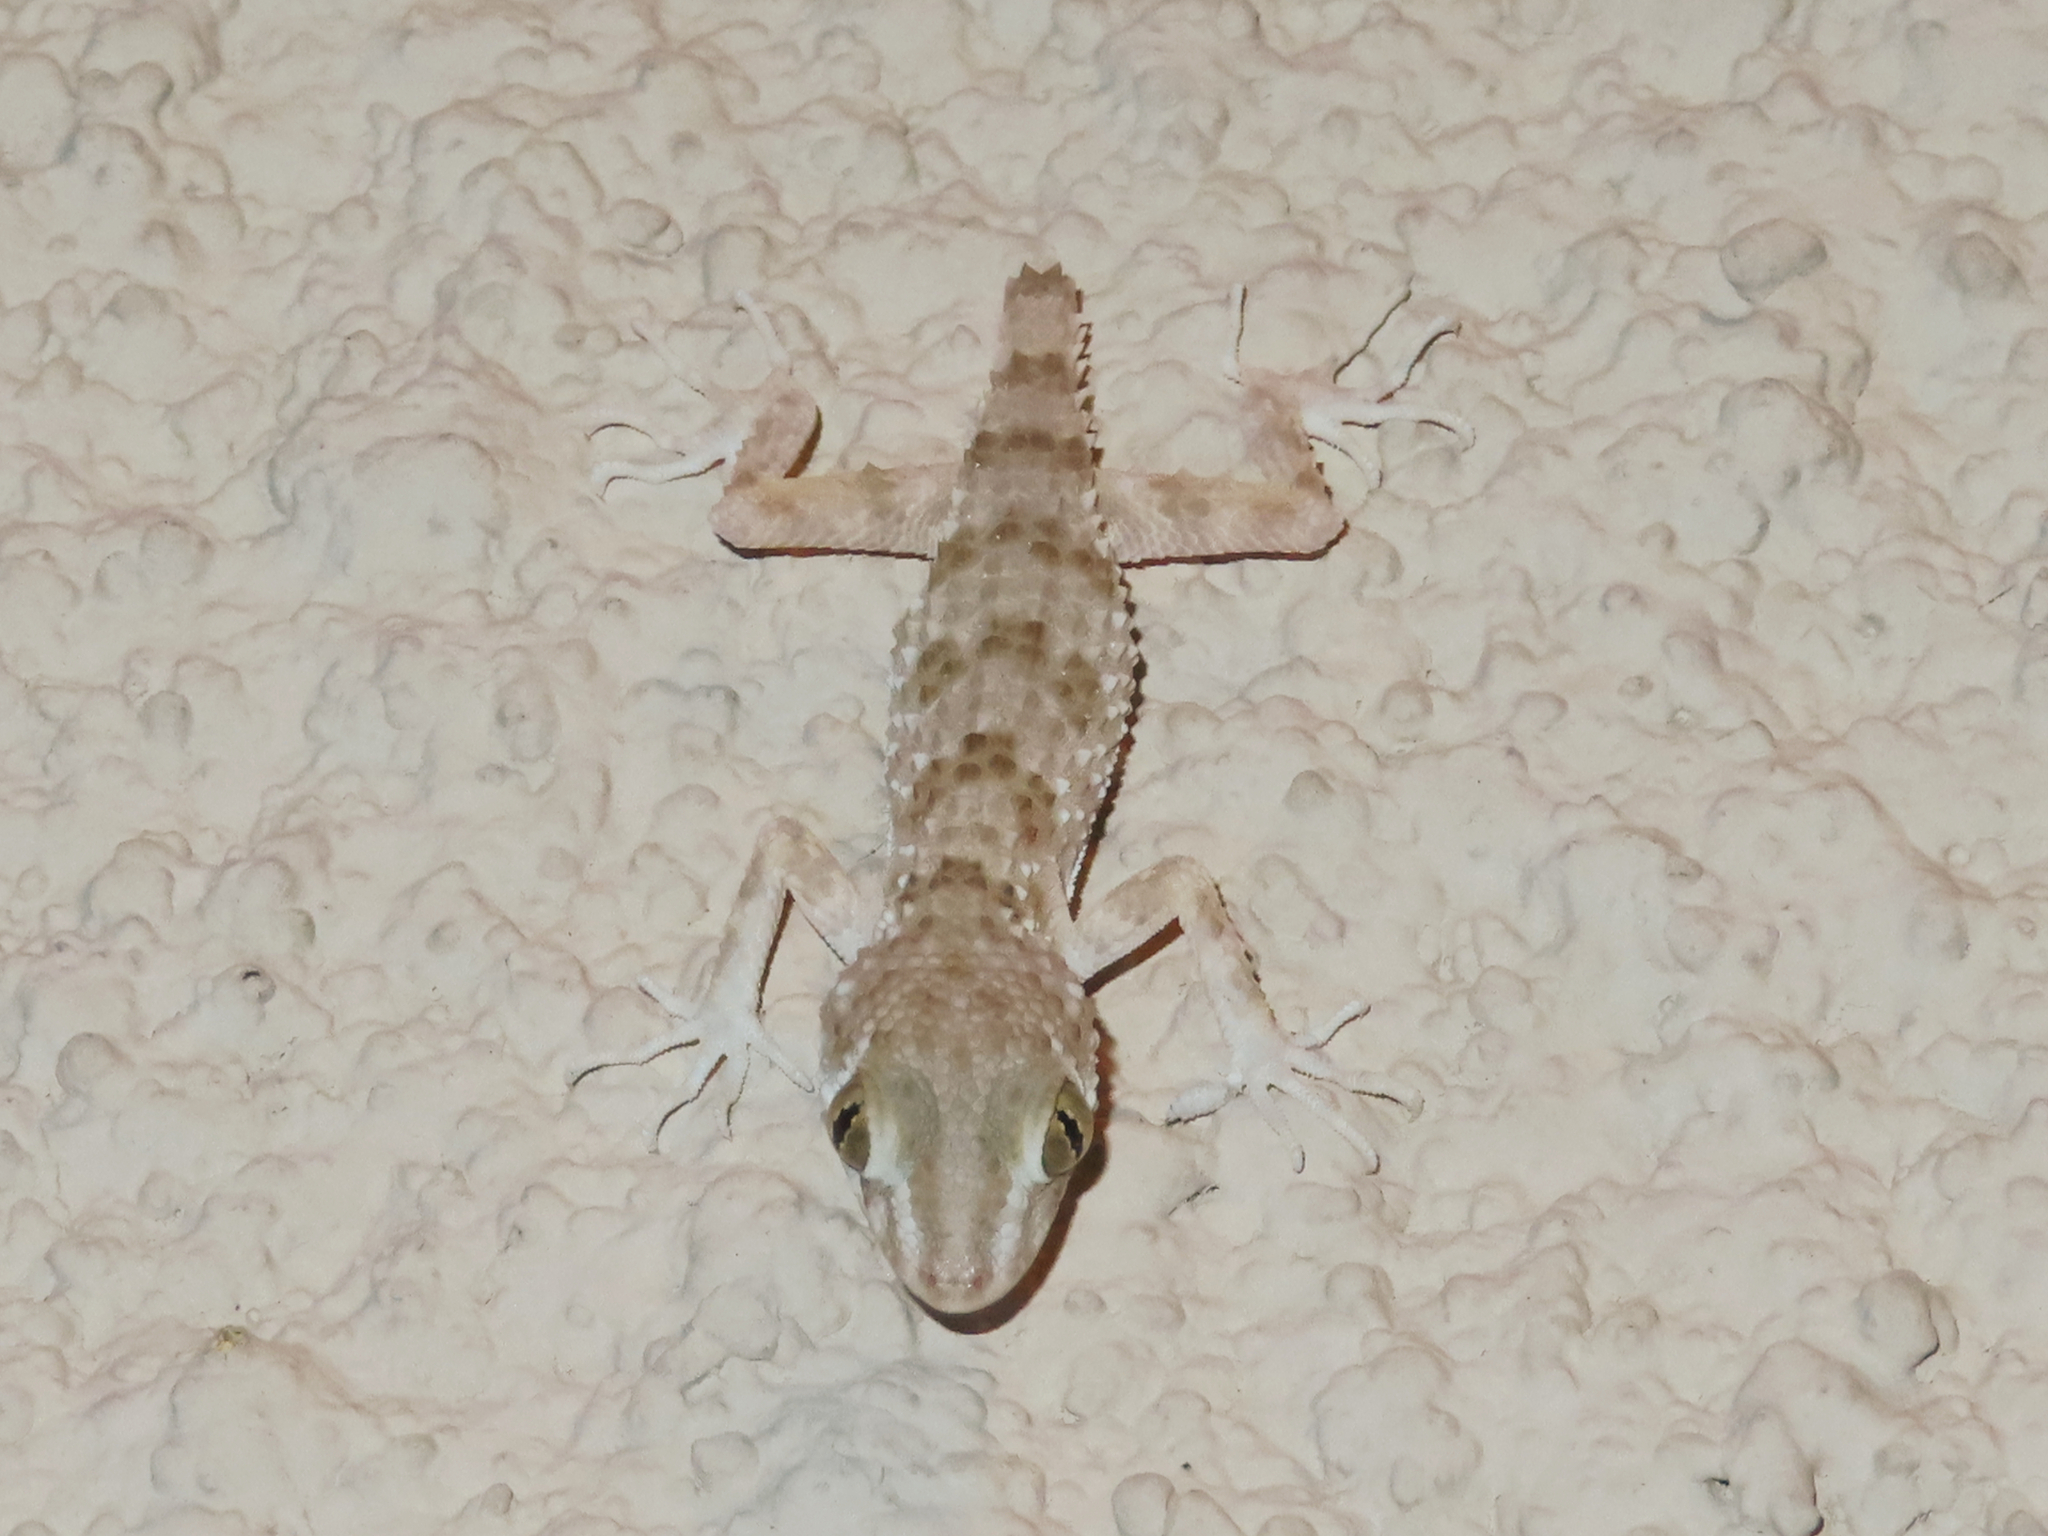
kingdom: Animalia
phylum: Chordata
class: Squamata
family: Gekkonidae
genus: Tenuidactylus
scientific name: Tenuidactylus caspius
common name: Caspian bent-toed gecko
